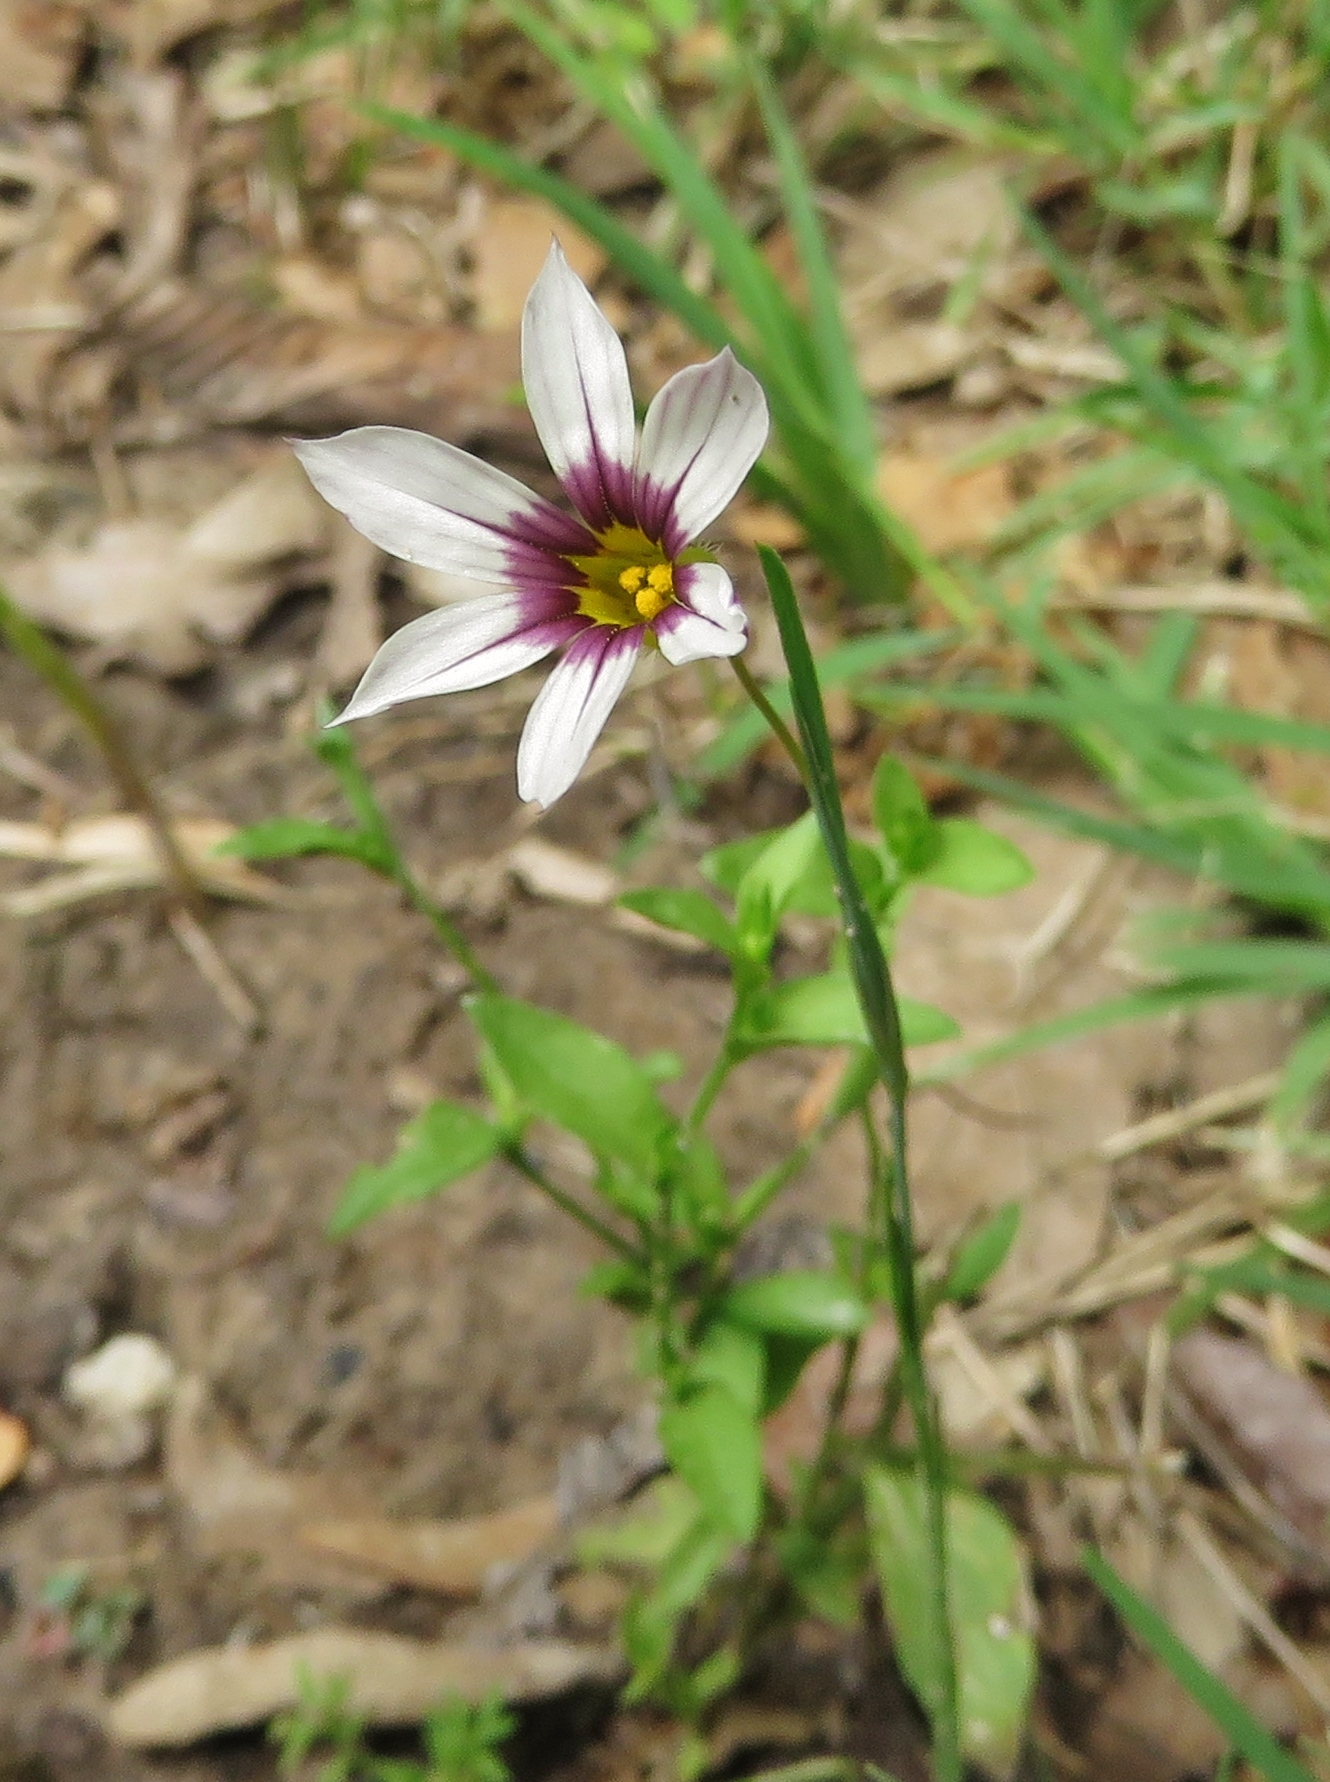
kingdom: Plantae
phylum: Tracheophyta
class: Liliopsida
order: Asparagales
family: Iridaceae
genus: Sisyrinchium
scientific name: Sisyrinchium micranthum
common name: Bermuda pigroot
